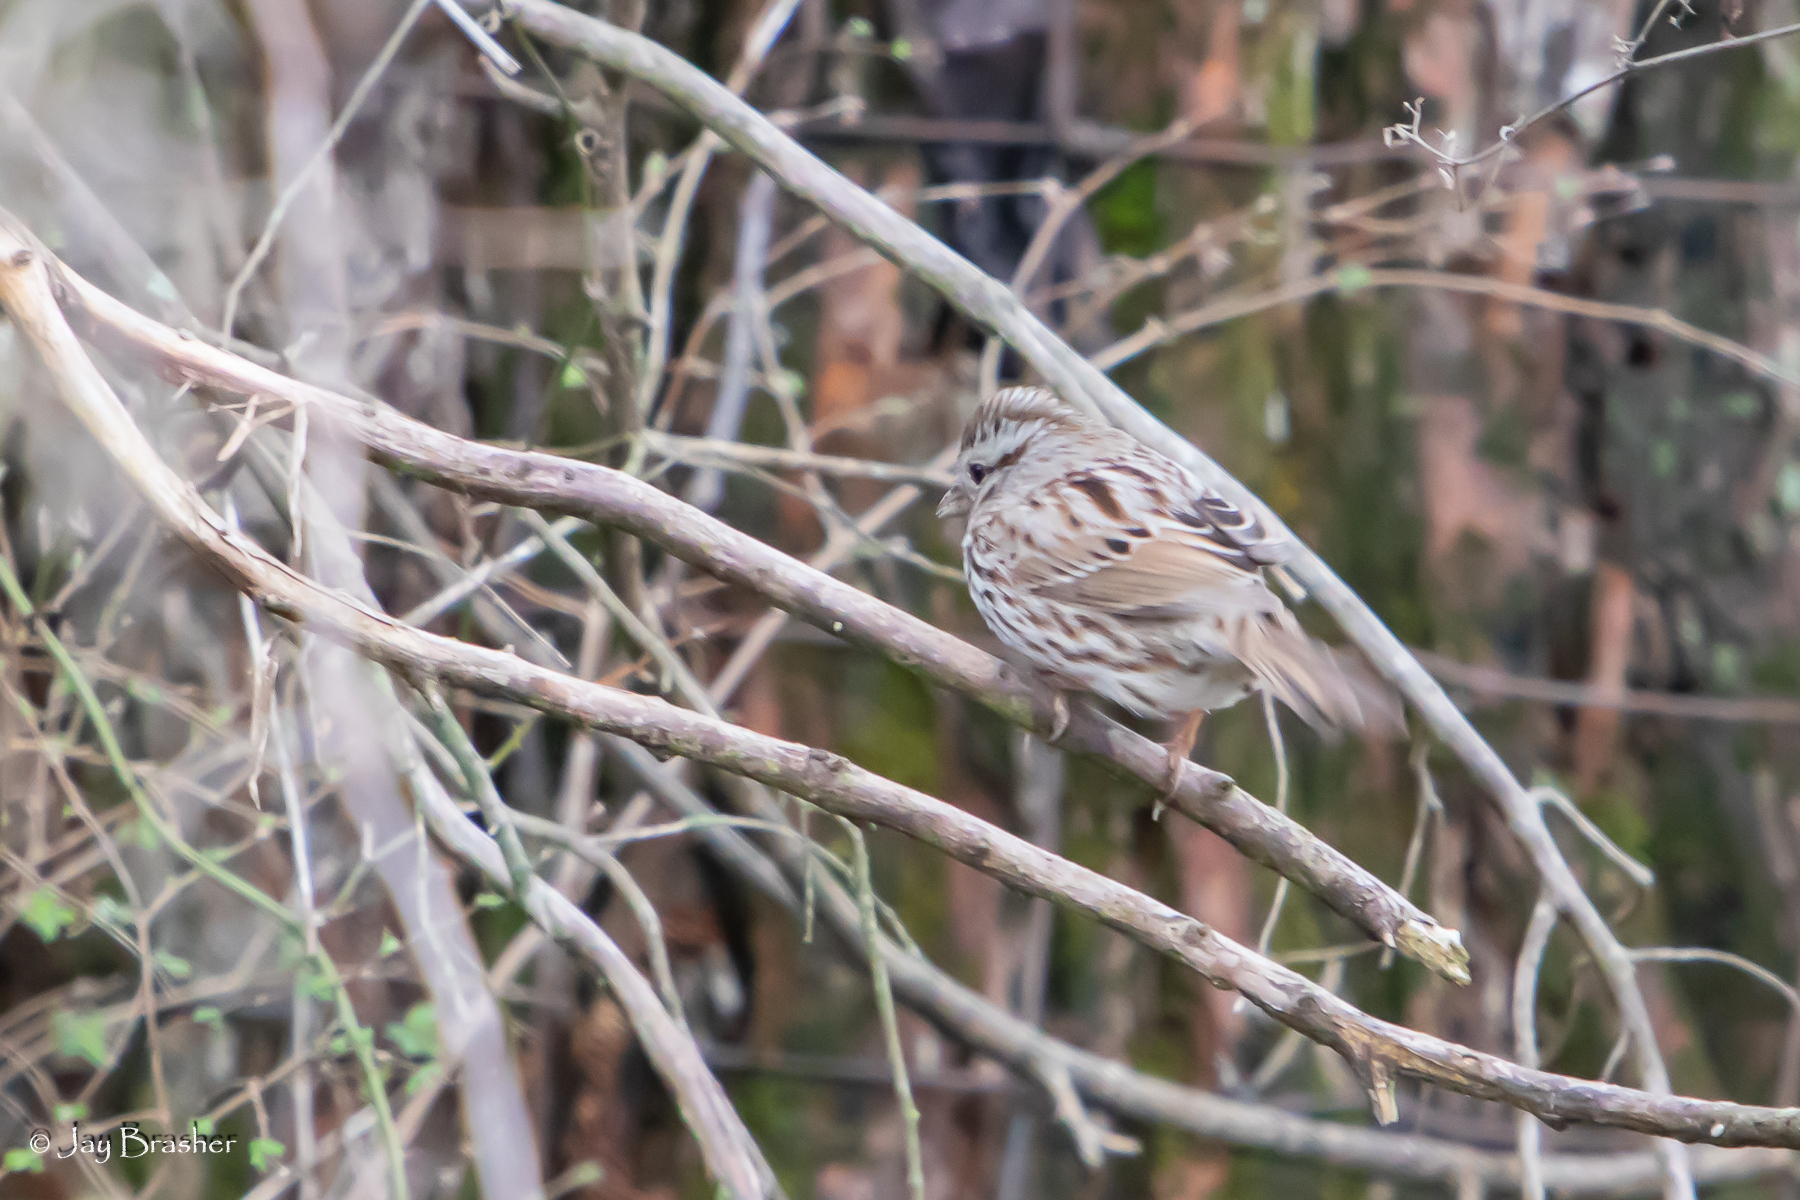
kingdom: Animalia
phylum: Chordata
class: Aves
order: Passeriformes
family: Passerellidae
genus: Melospiza
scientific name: Melospiza melodia
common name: Song sparrow
